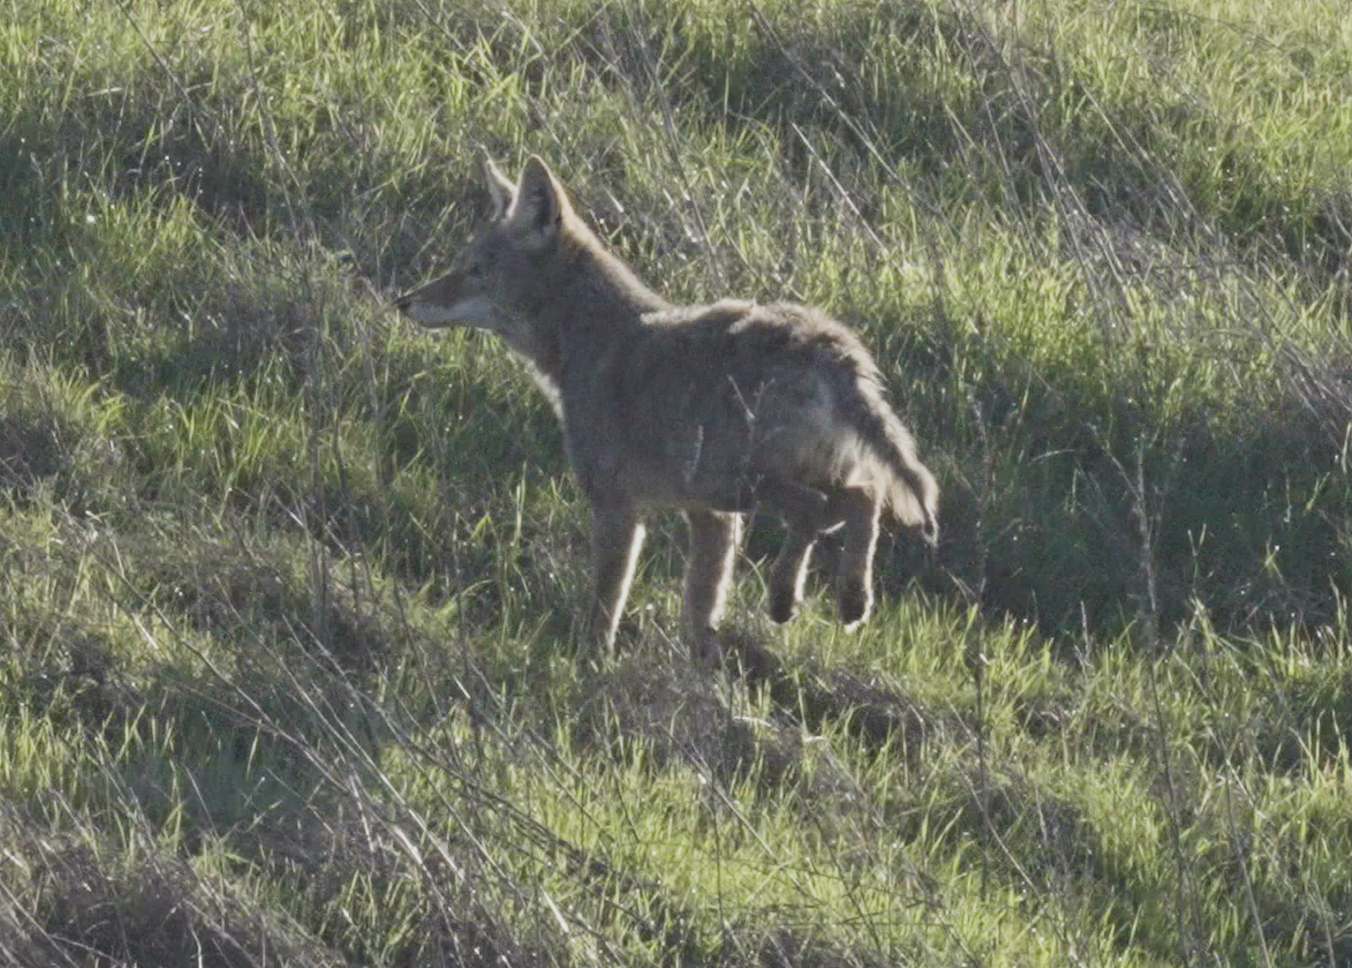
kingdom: Animalia
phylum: Chordata
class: Mammalia
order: Carnivora
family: Canidae
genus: Canis
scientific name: Canis latrans
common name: Coyote
